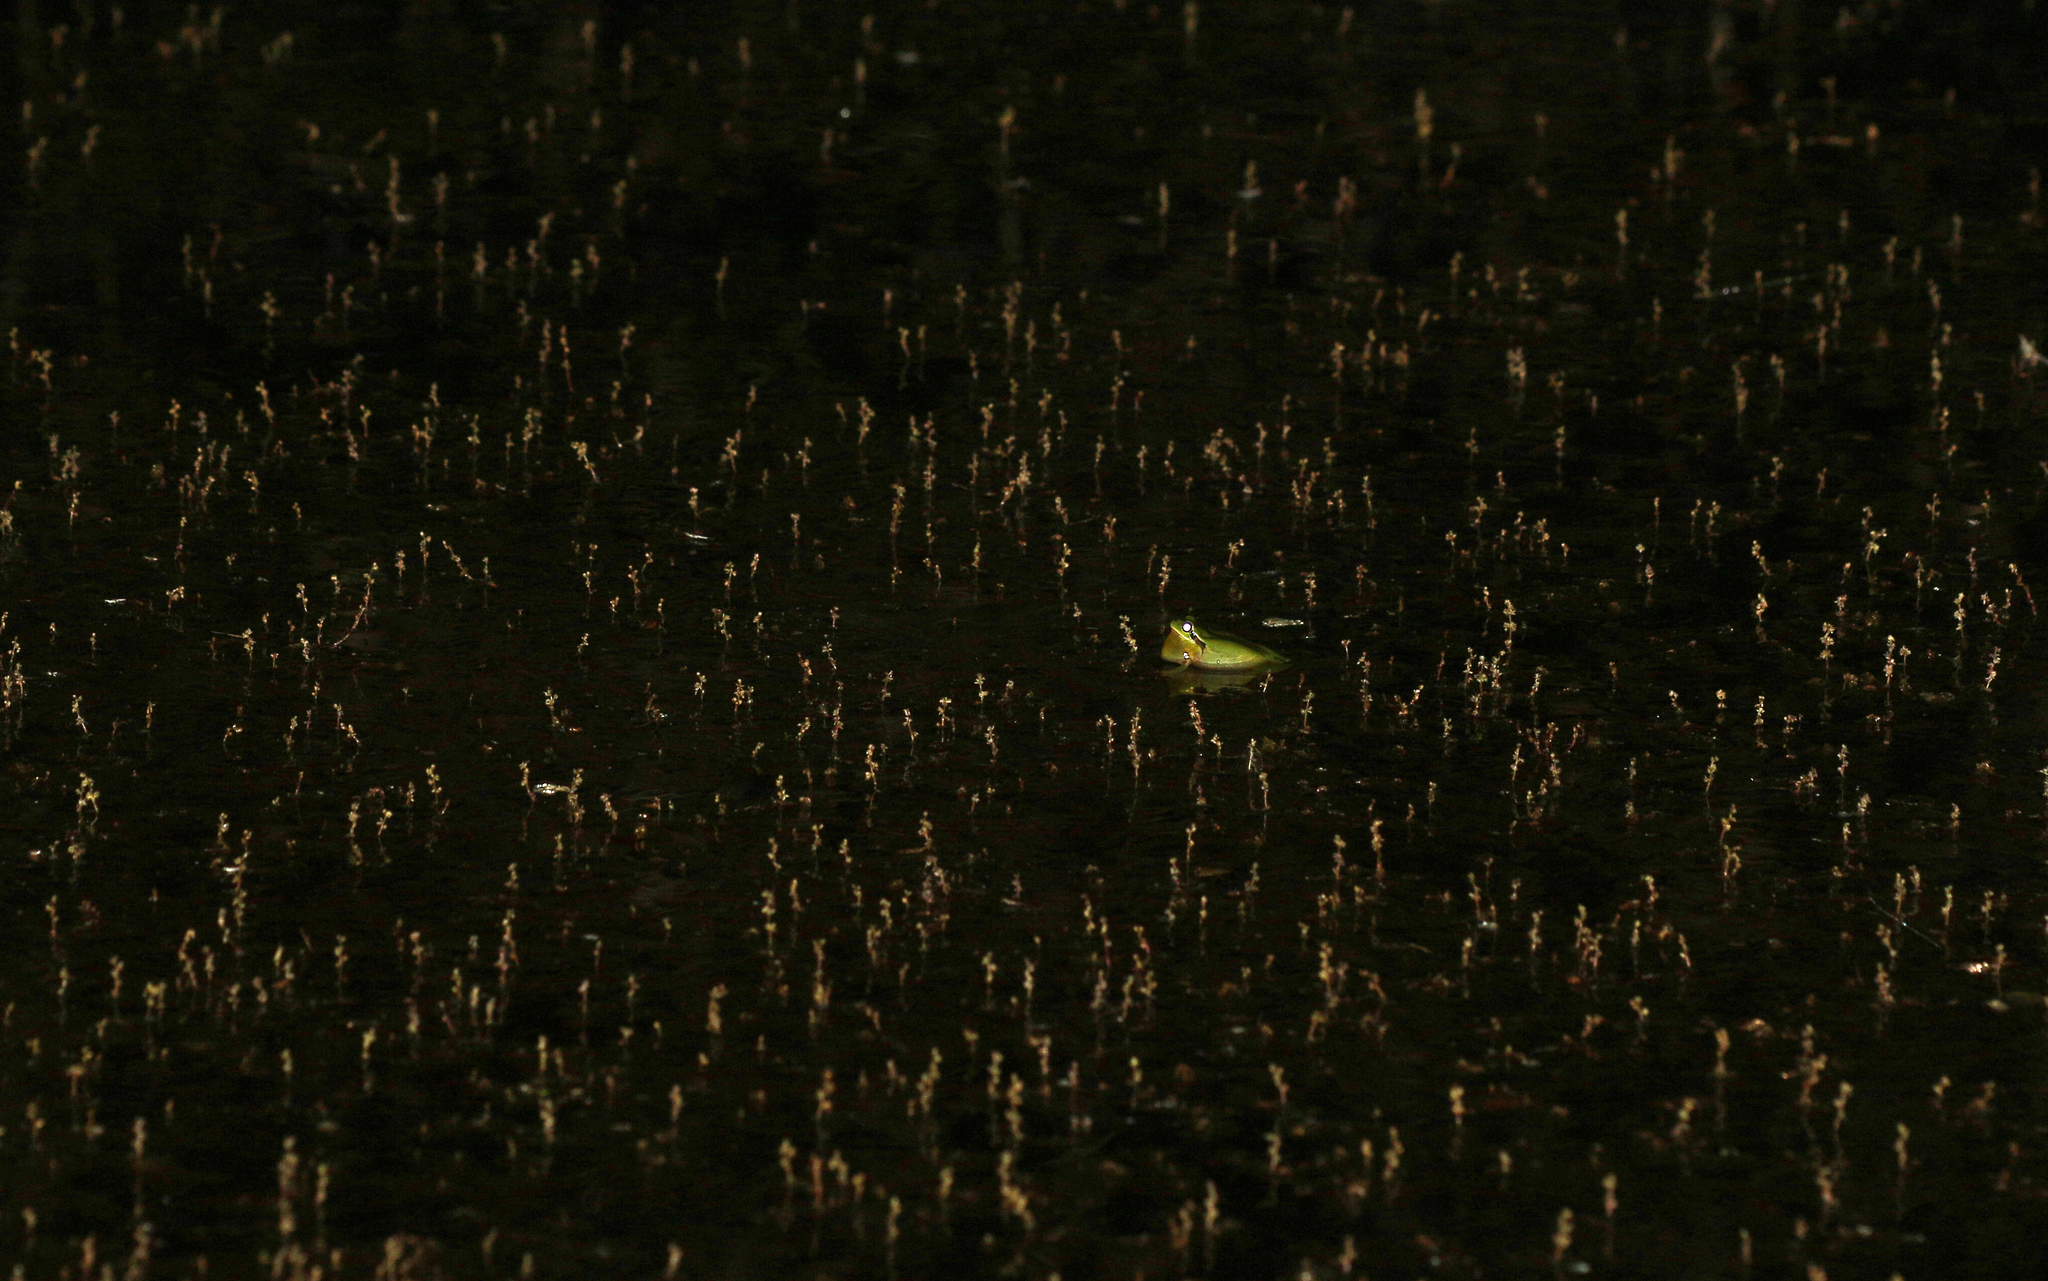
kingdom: Animalia
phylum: Chordata
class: Amphibia
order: Anura
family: Hylidae
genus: Hyla
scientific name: Hyla meridionalis
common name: Stripeless tree frog
